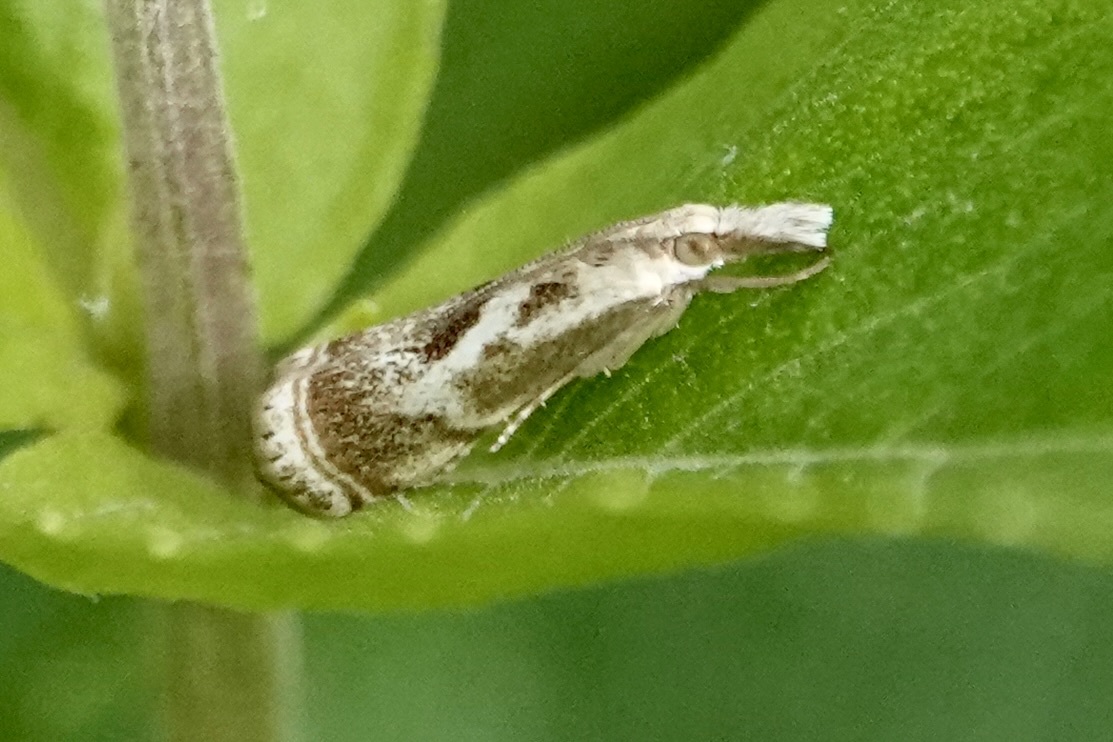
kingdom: Animalia
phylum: Arthropoda
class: Insecta
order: Lepidoptera
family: Crambidae
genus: Microcrambus
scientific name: Microcrambus elegans
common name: Elegant grass-veneer
